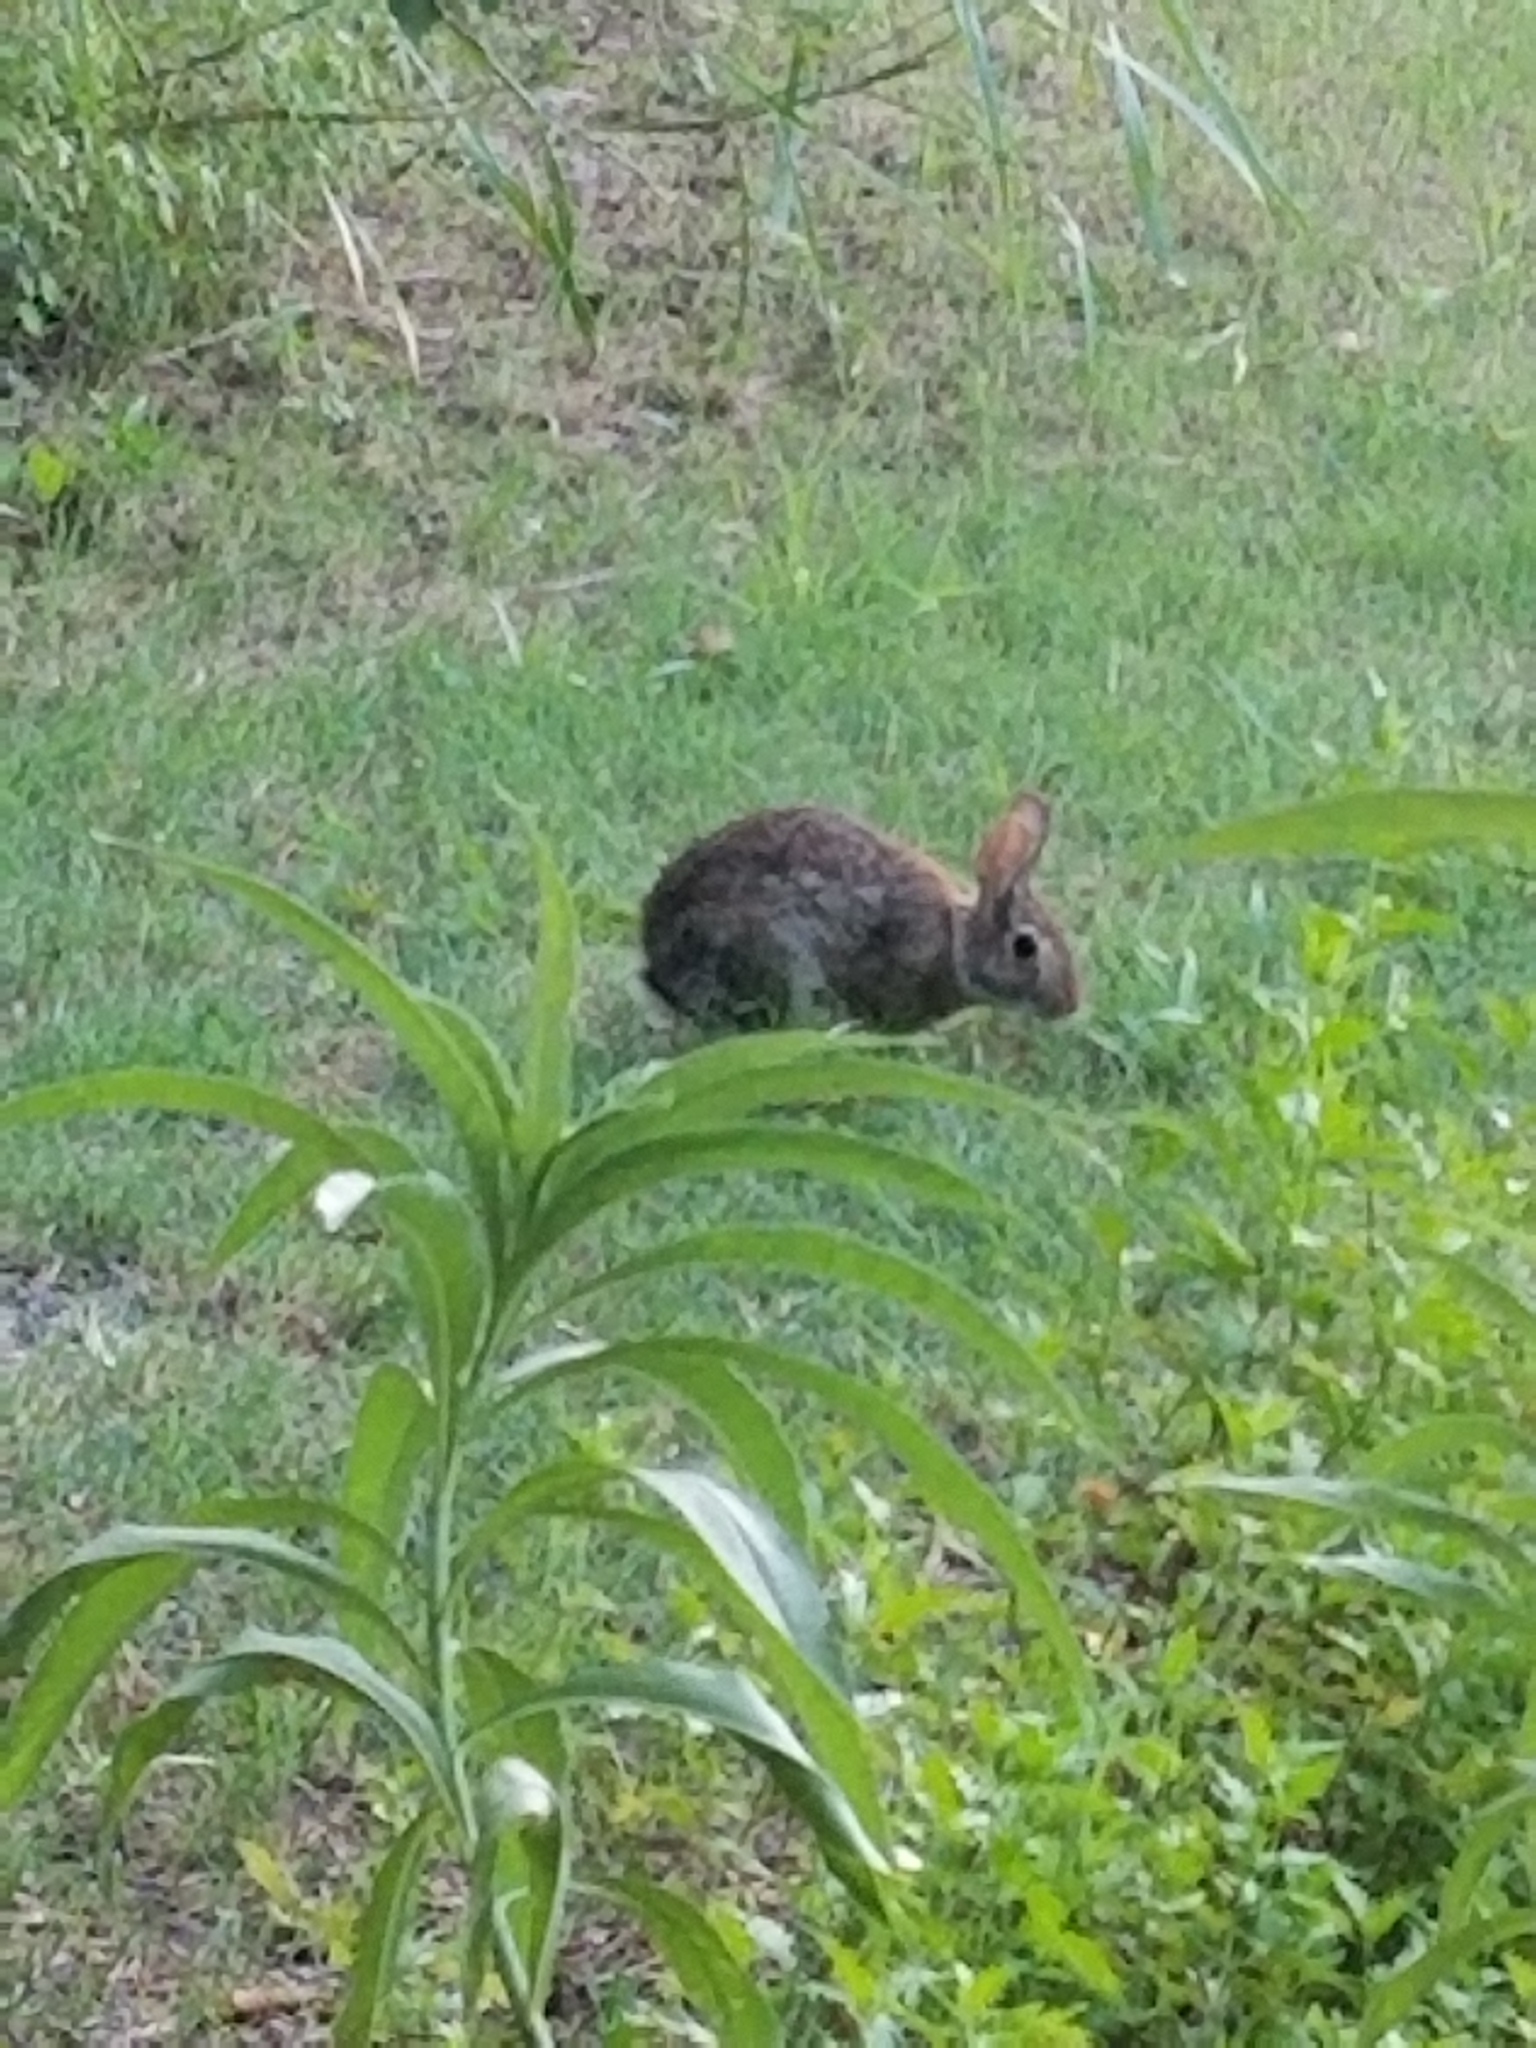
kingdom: Animalia
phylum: Chordata
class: Mammalia
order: Lagomorpha
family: Leporidae
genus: Sylvilagus
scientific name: Sylvilagus floridanus
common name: Eastern cottontail
